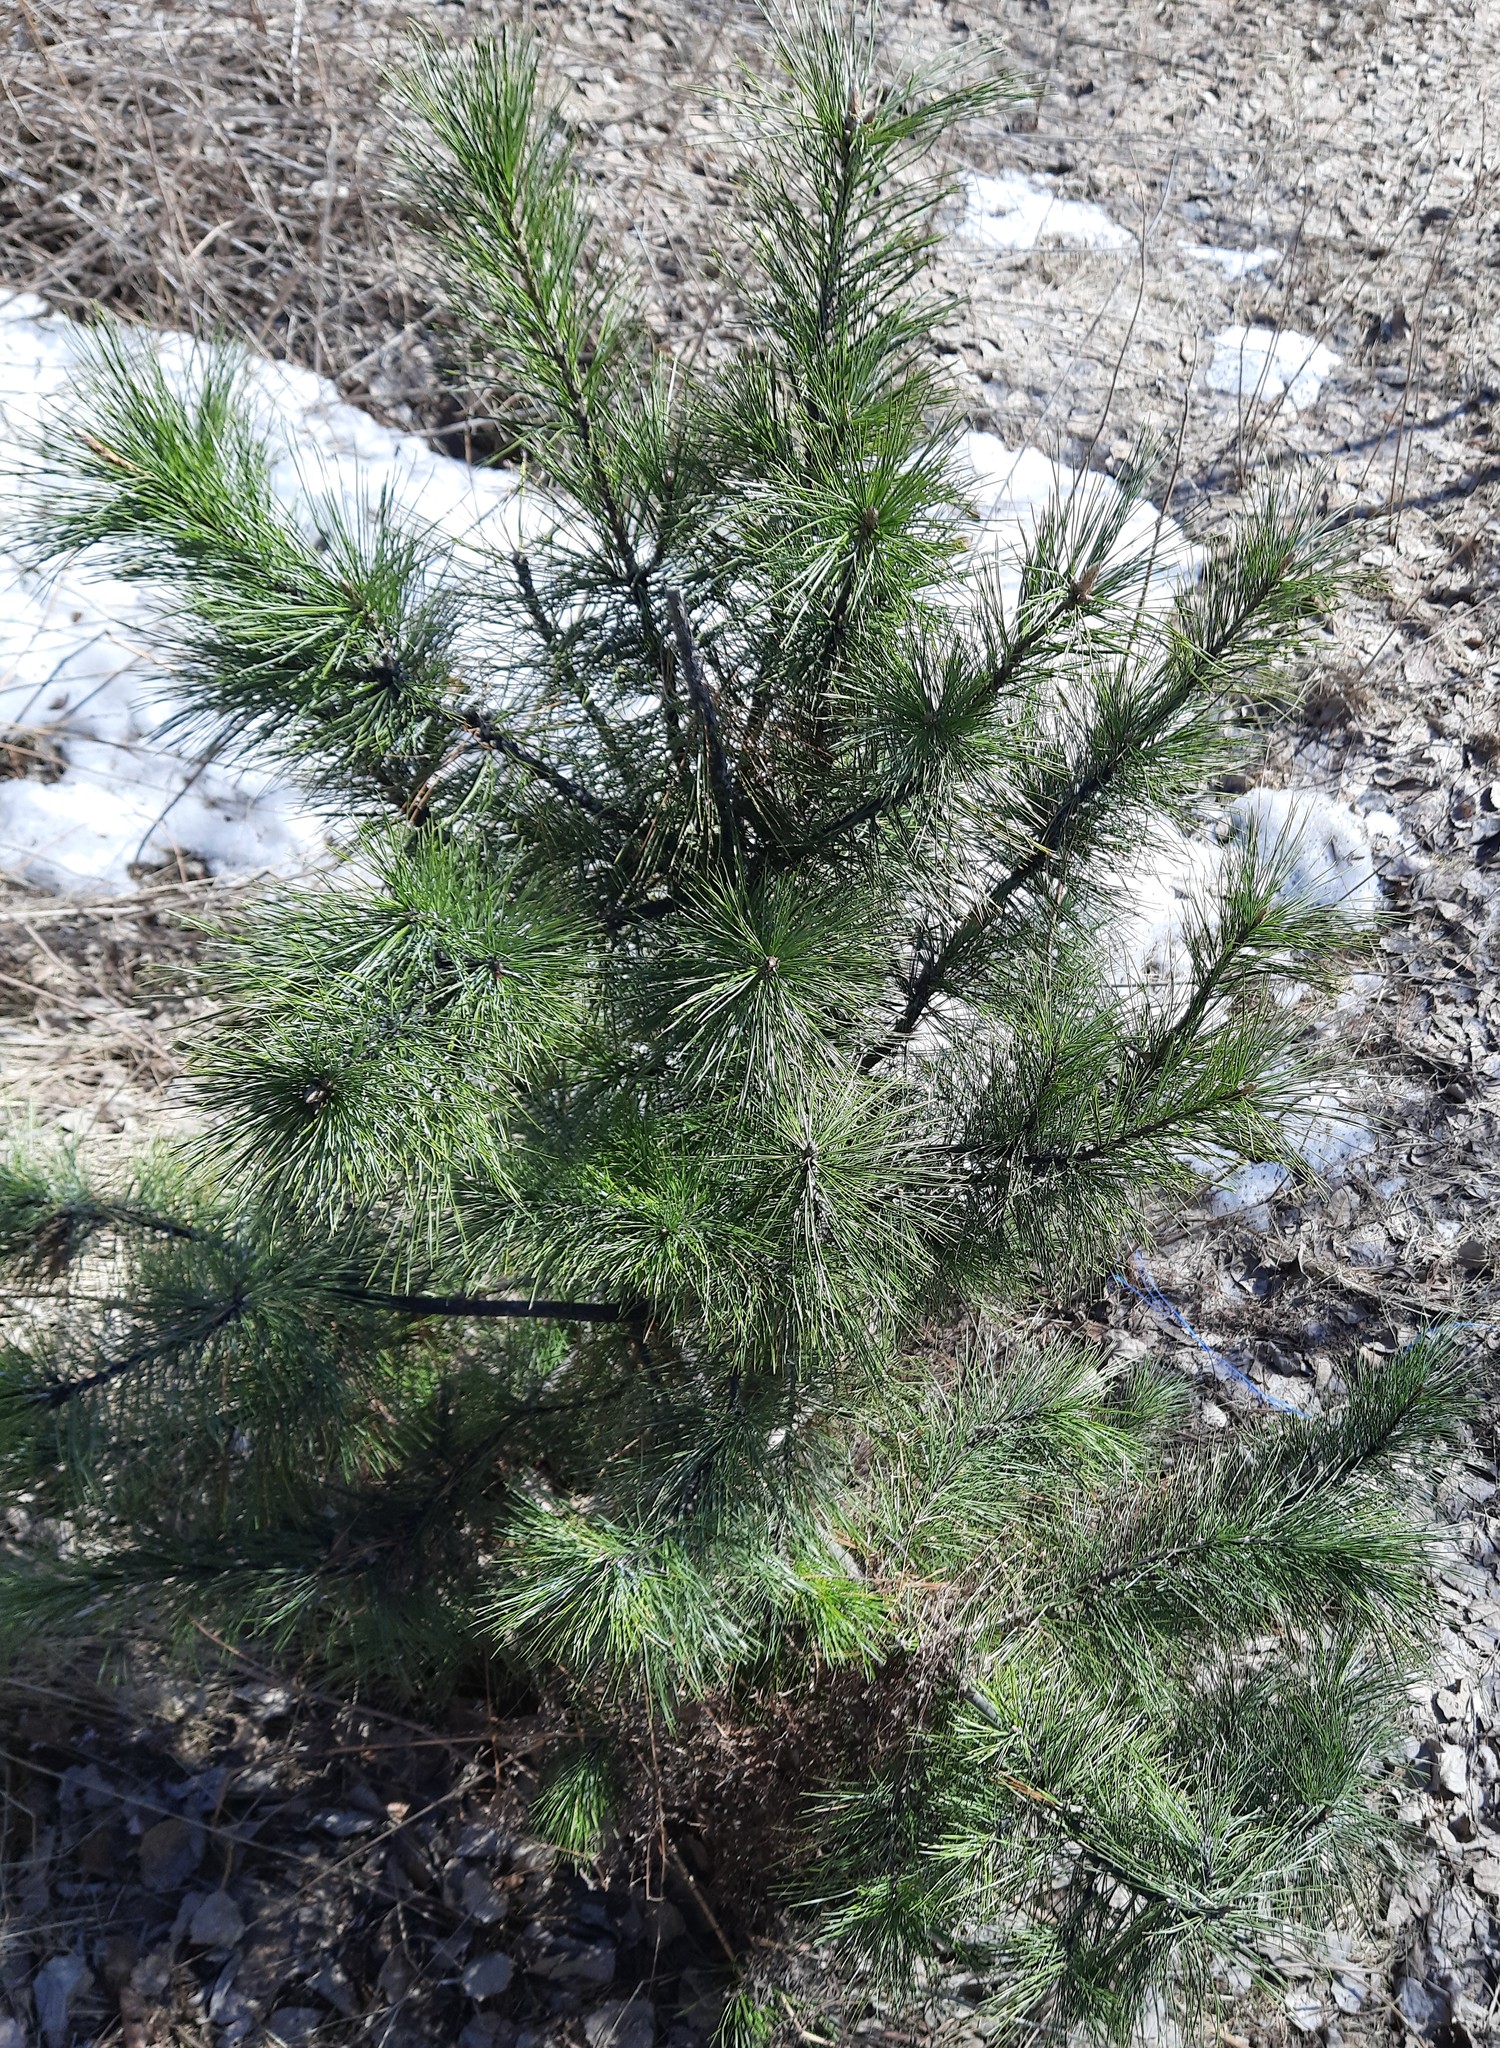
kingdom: Plantae
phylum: Tracheophyta
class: Pinopsida
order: Pinales
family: Pinaceae
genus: Pinus
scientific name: Pinus sibirica
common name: Siberian pine
